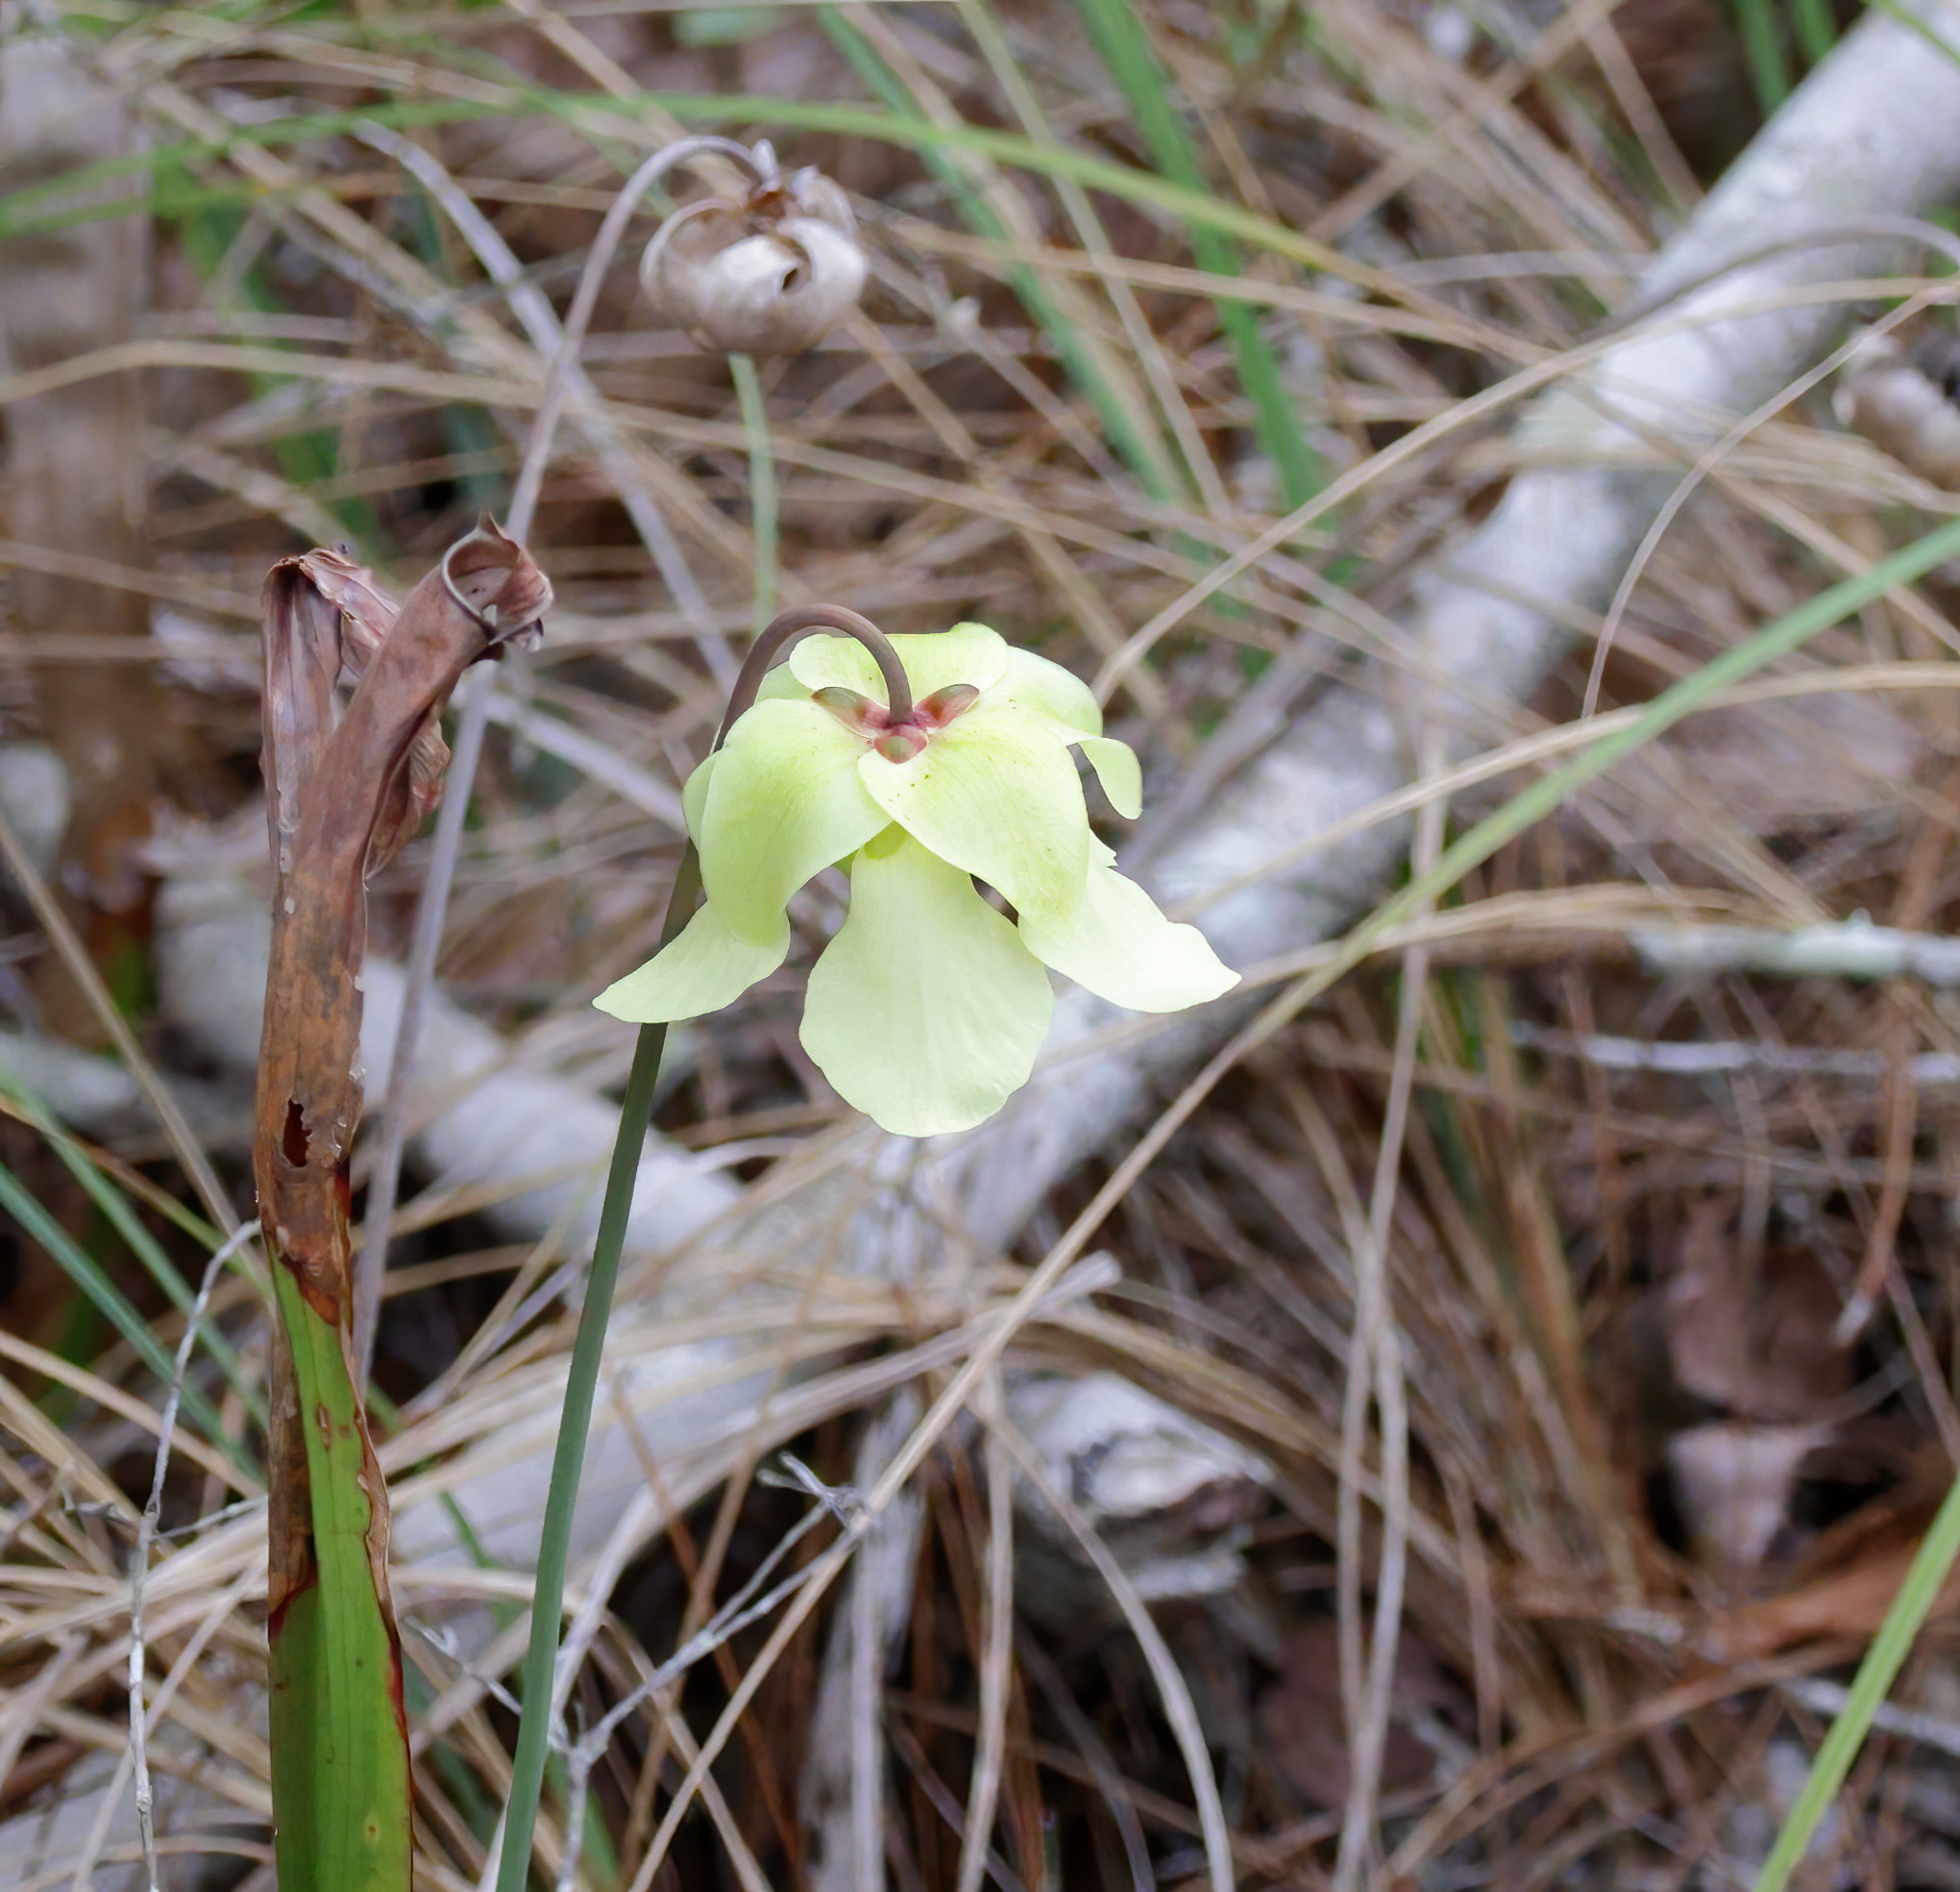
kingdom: Plantae
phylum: Tracheophyta
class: Magnoliopsida
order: Ericales
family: Sarraceniaceae
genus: Sarracenia
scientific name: Sarracenia alata
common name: Yellow trumpets
